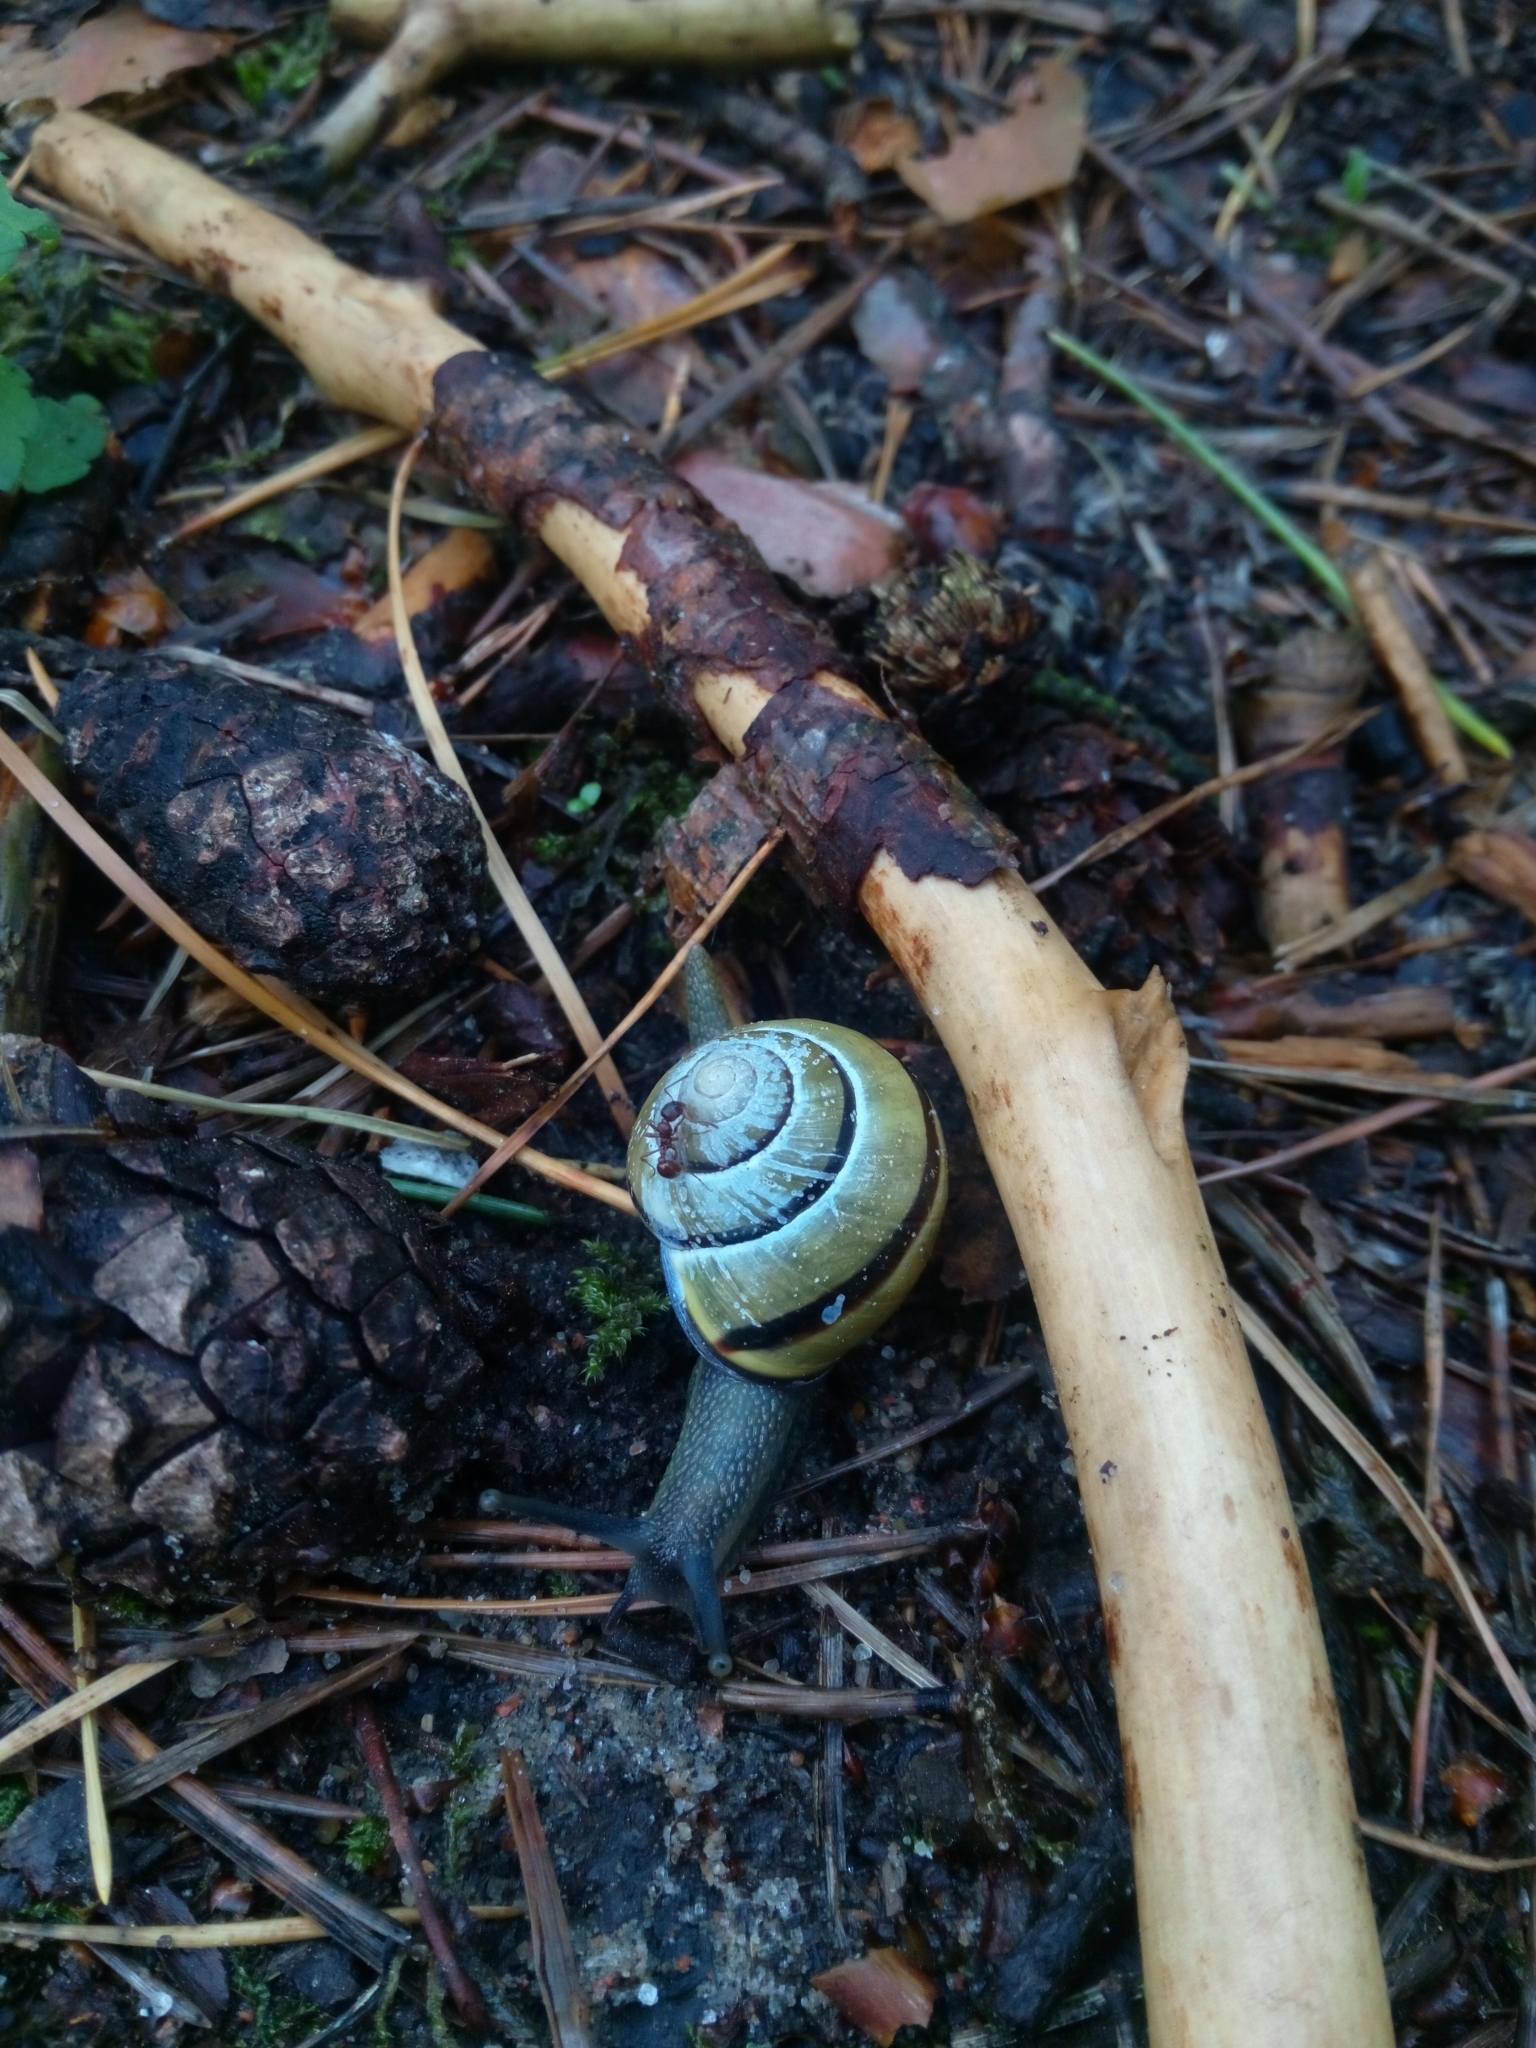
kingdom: Animalia
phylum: Mollusca
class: Gastropoda
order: Stylommatophora
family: Helicidae
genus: Cepaea
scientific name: Cepaea nemoralis
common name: Grovesnail
